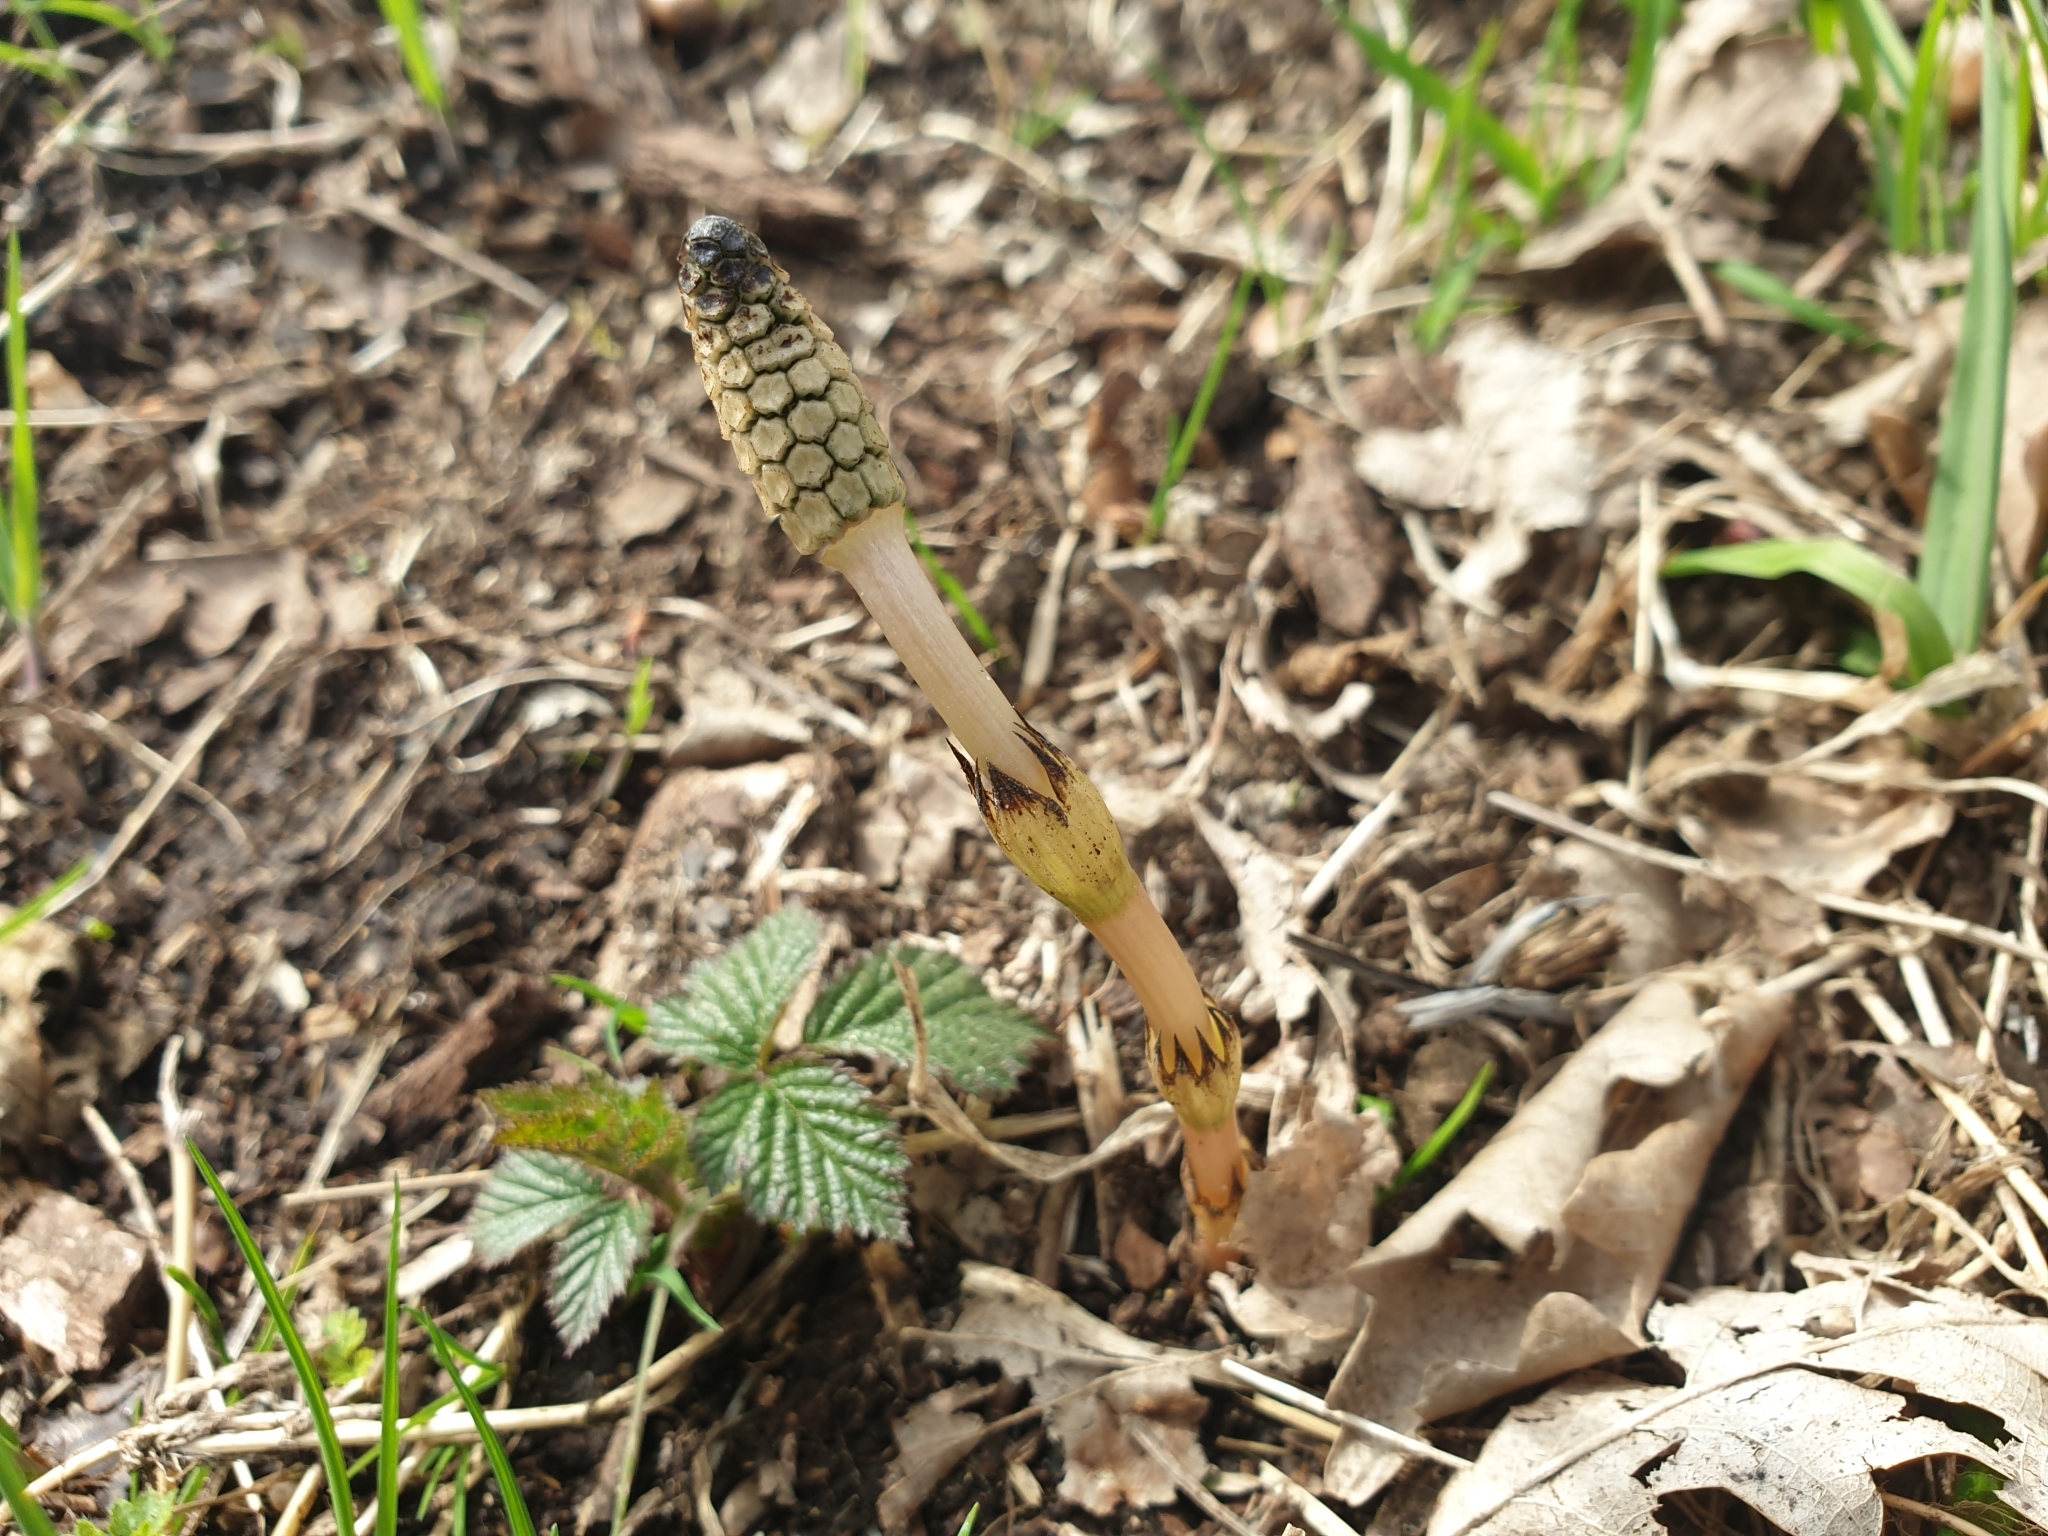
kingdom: Plantae
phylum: Tracheophyta
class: Polypodiopsida
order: Equisetales
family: Equisetaceae
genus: Equisetum
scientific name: Equisetum arvense
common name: Field horsetail
